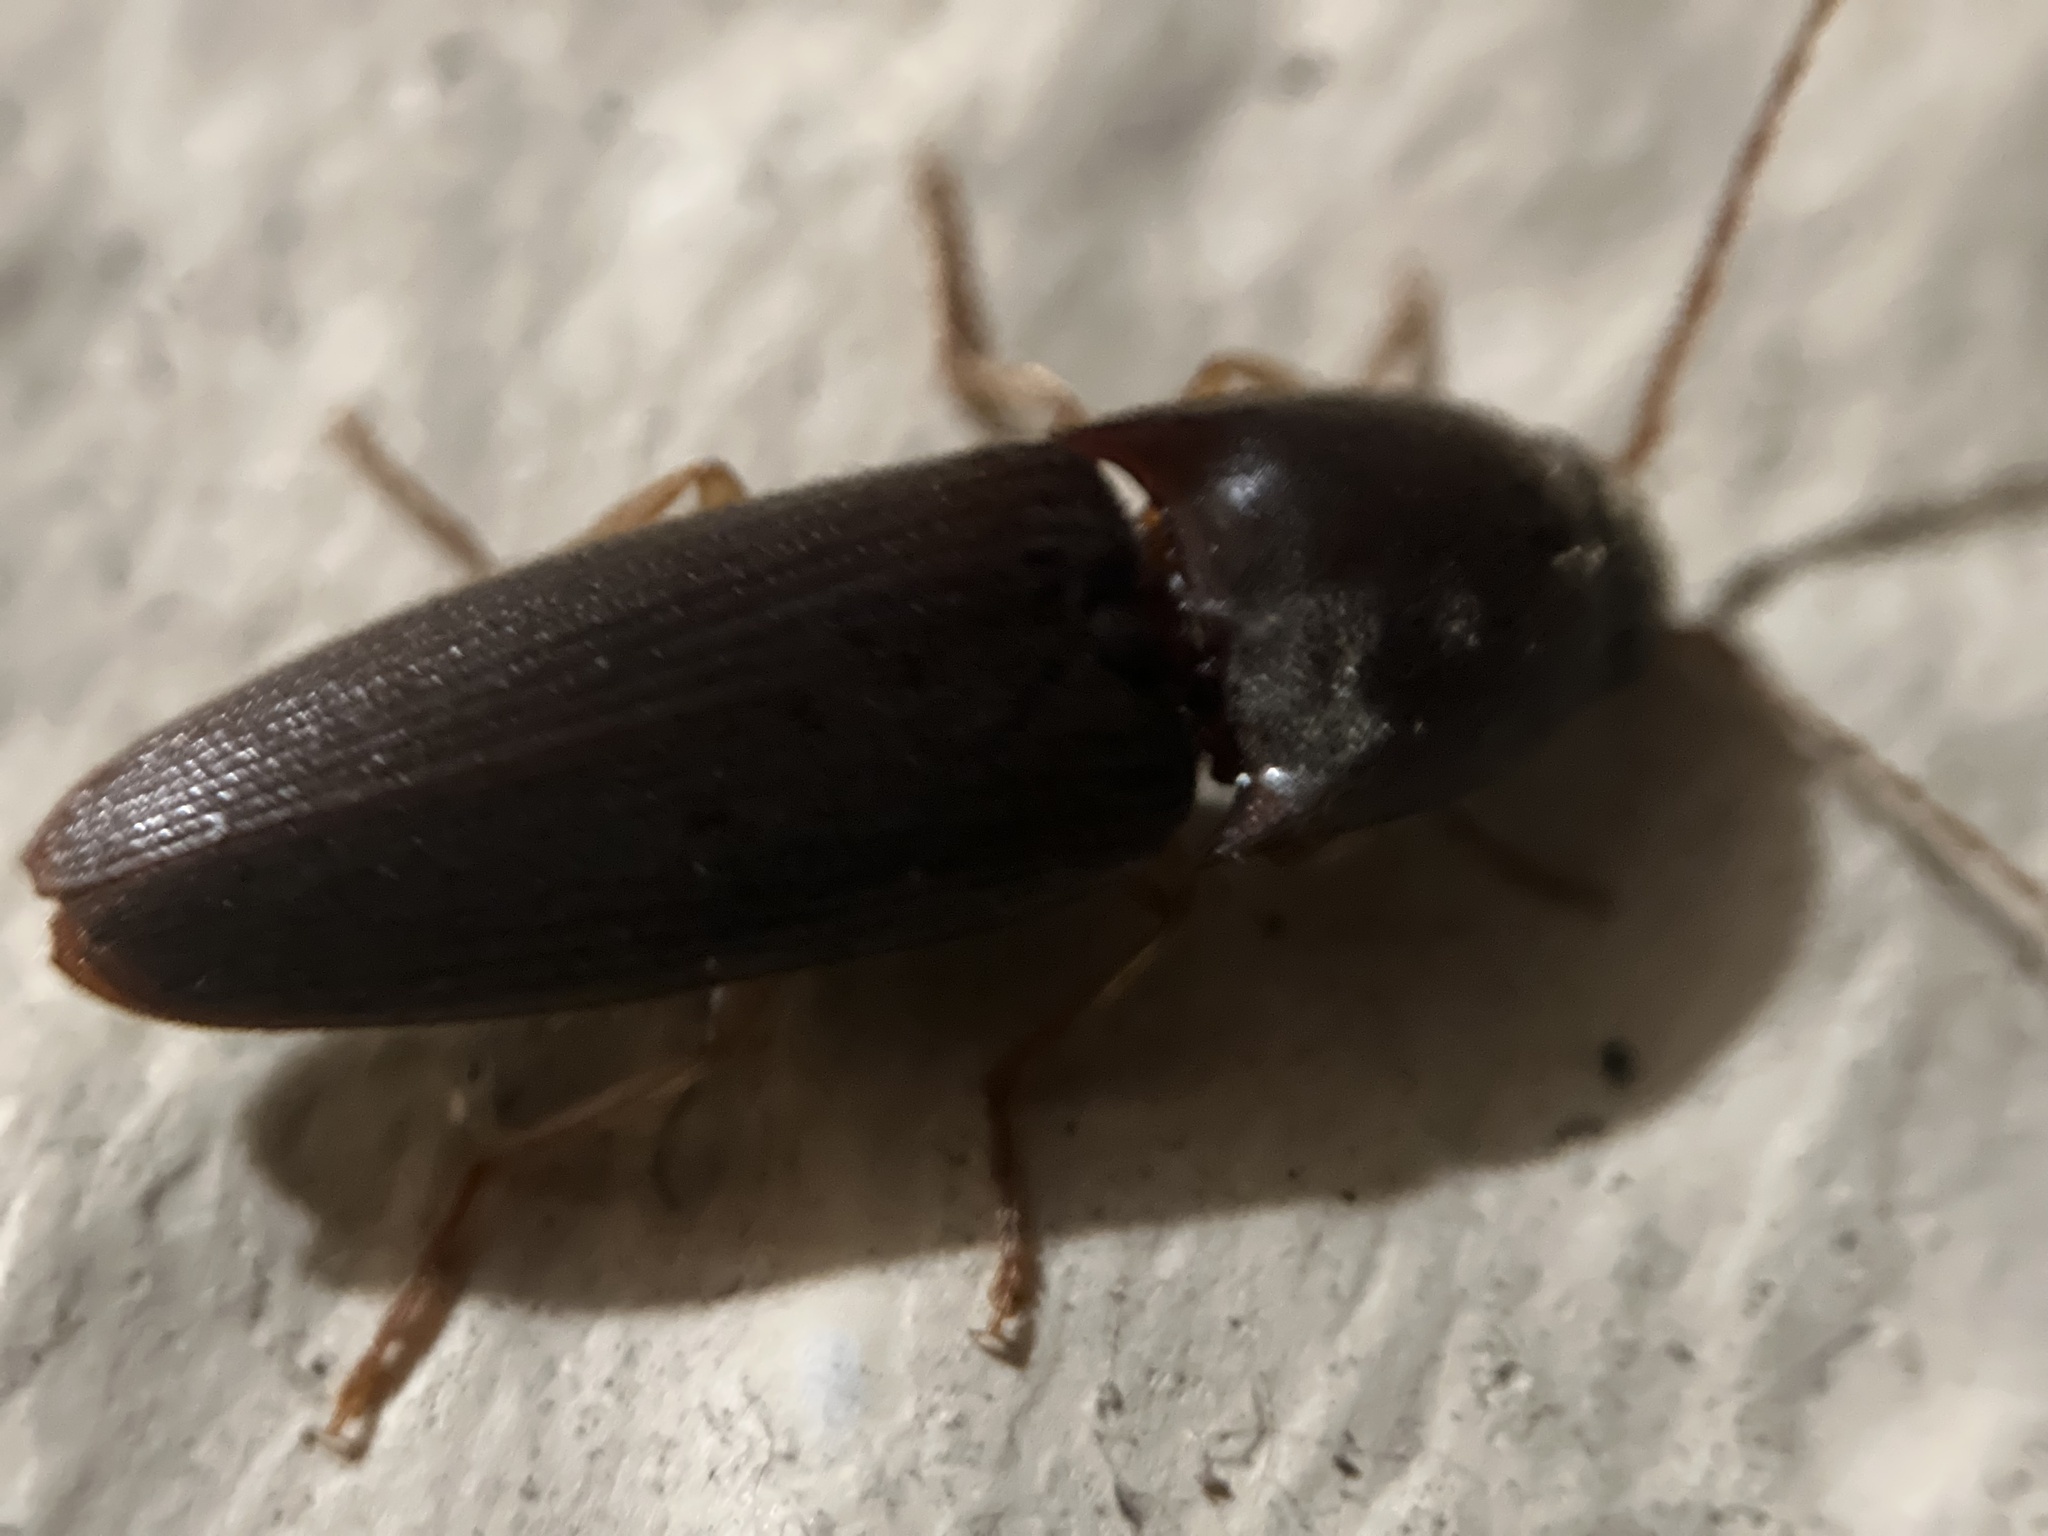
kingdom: Animalia
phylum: Arthropoda
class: Insecta
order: Coleoptera
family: Elateridae
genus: Conoderus
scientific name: Conoderus exsul
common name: Click beetle
